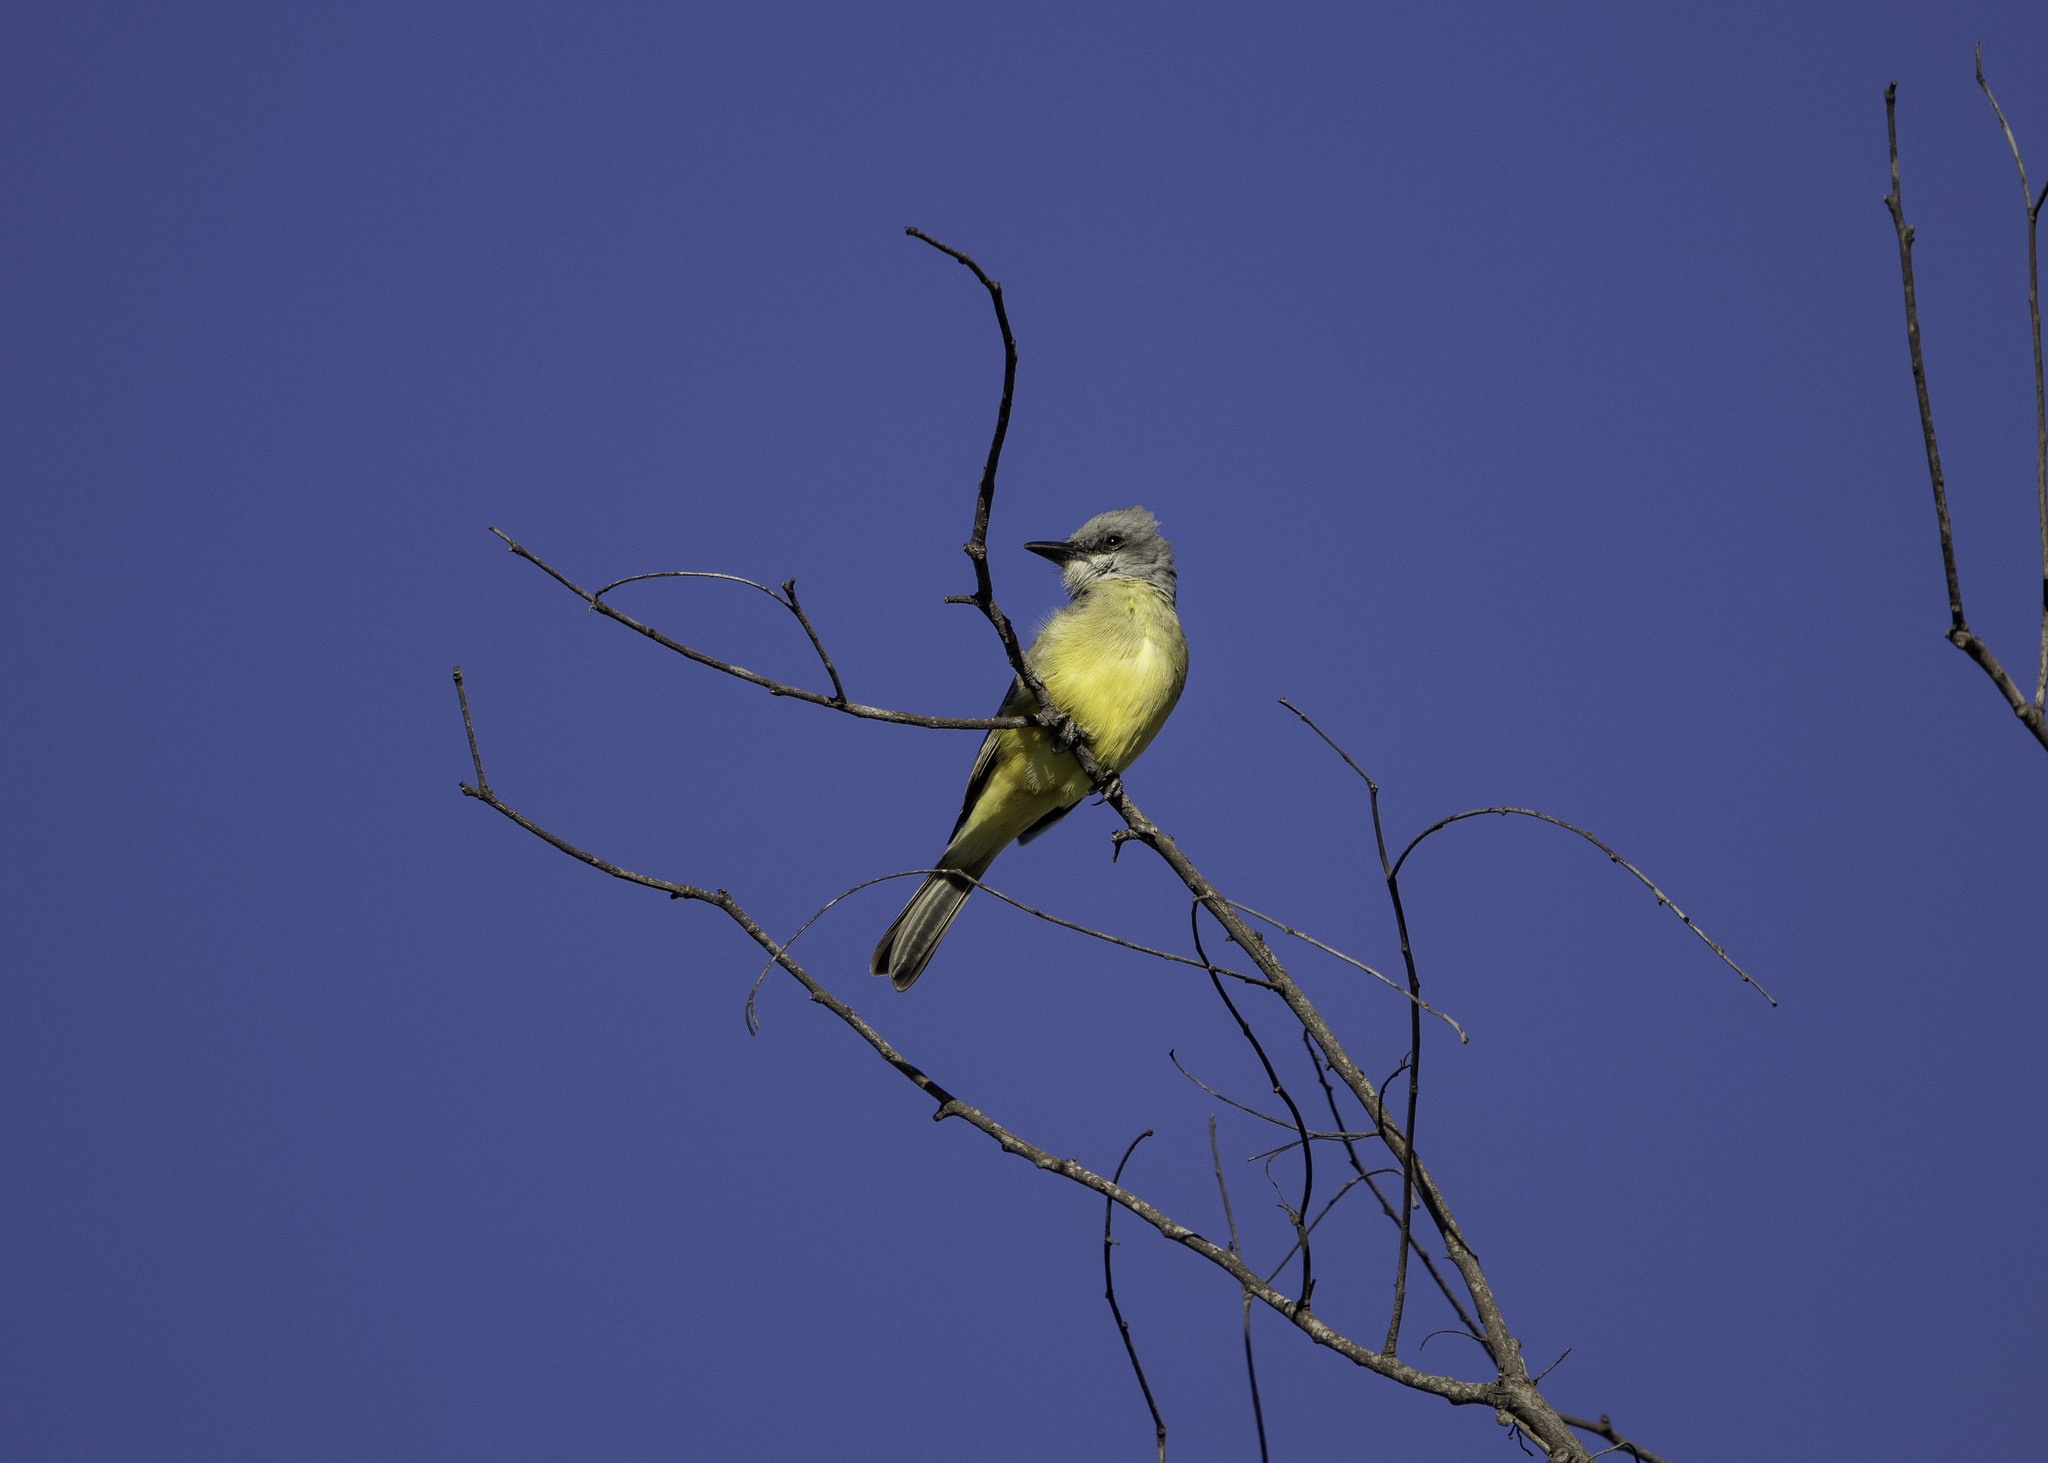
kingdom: Animalia
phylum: Chordata
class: Aves
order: Passeriformes
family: Tyrannidae
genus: Tyrannus
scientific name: Tyrannus melancholicus
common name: Tropical kingbird
